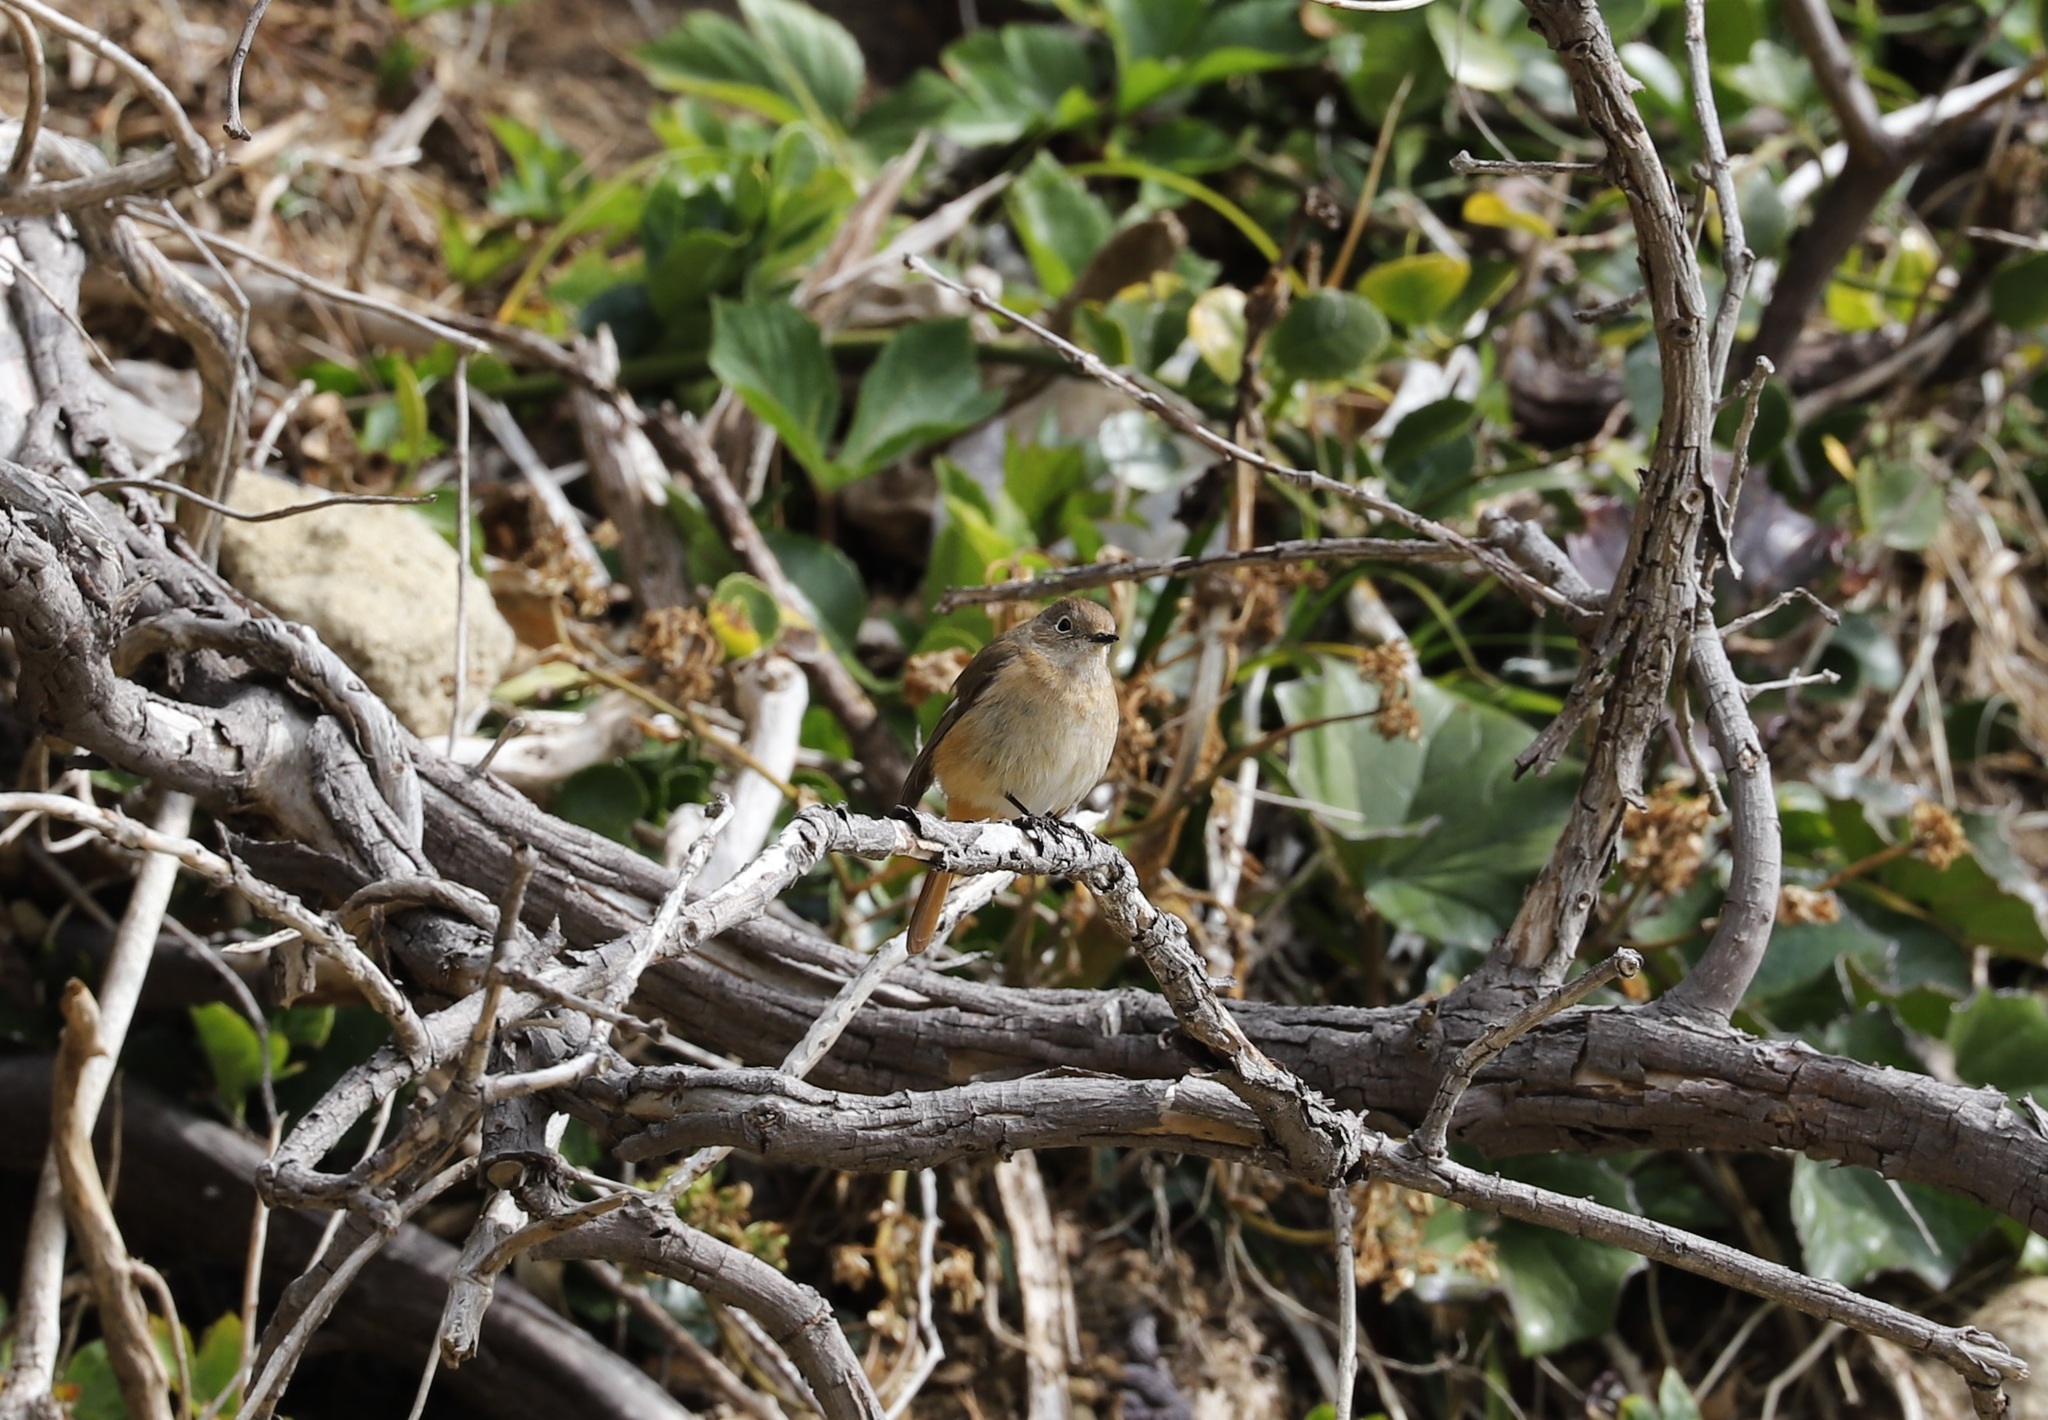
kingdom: Animalia
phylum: Chordata
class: Aves
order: Passeriformes
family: Muscicapidae
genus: Phoenicurus
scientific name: Phoenicurus auroreus
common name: Daurian redstart
